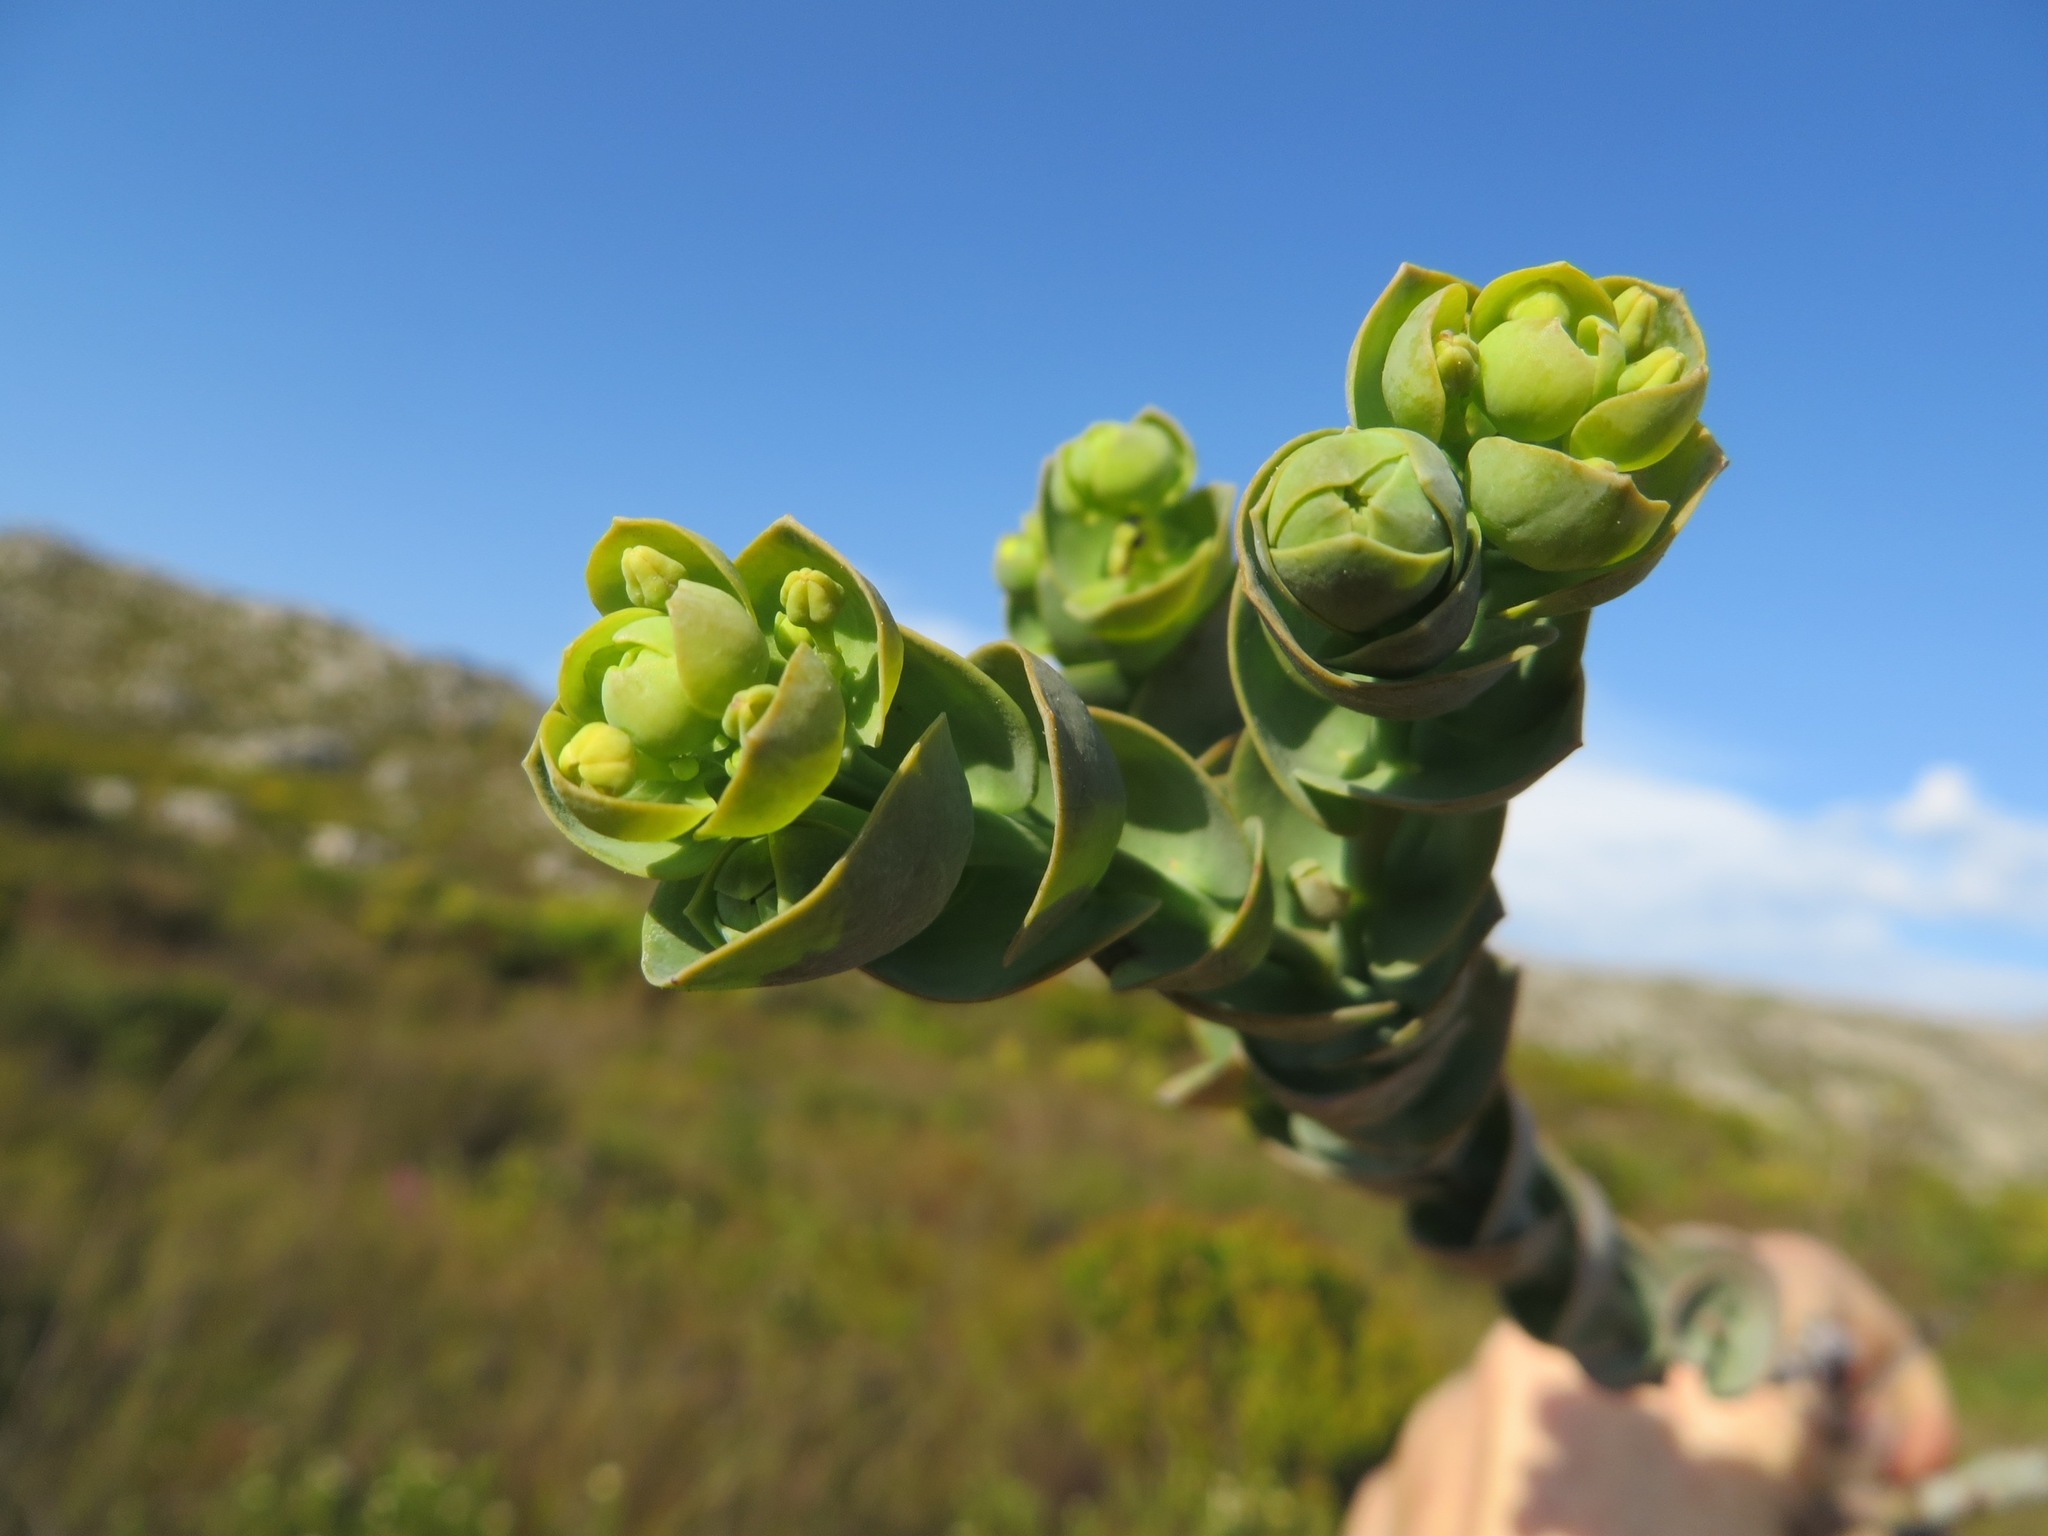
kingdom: Plantae
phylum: Tracheophyta
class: Magnoliopsida
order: Santalales
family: Thesiaceae
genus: Thesium
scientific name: Thesium euphorbioides
